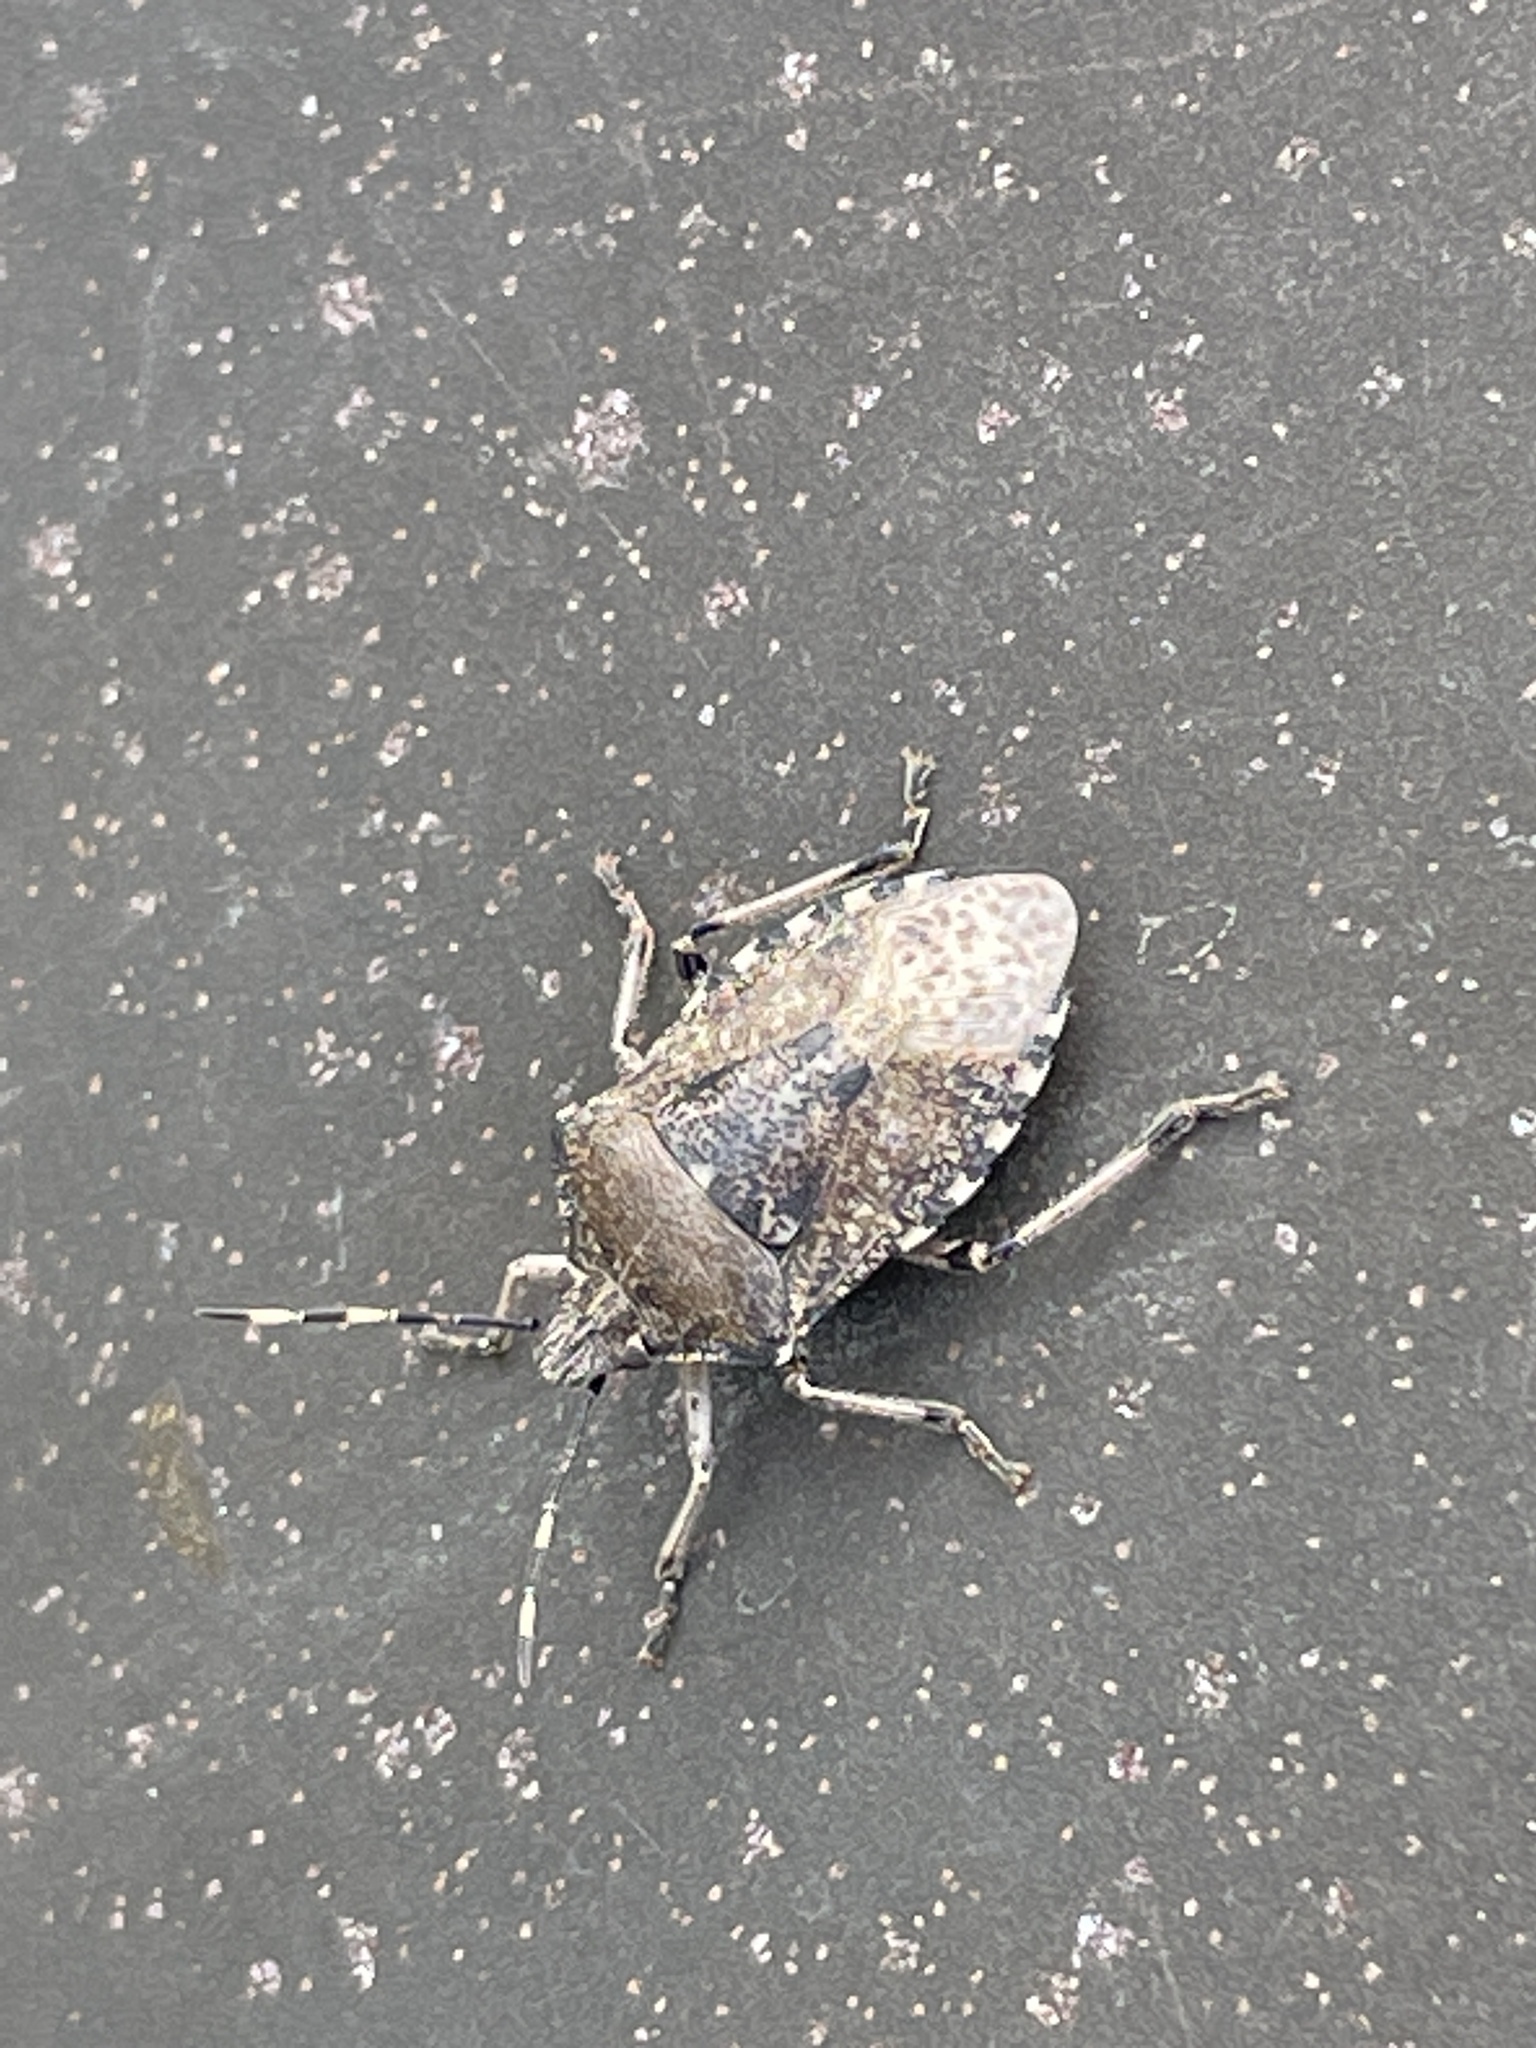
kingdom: Animalia
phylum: Arthropoda
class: Insecta
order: Hemiptera
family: Pentatomidae
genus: Rhaphigaster
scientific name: Rhaphigaster nebulosa
